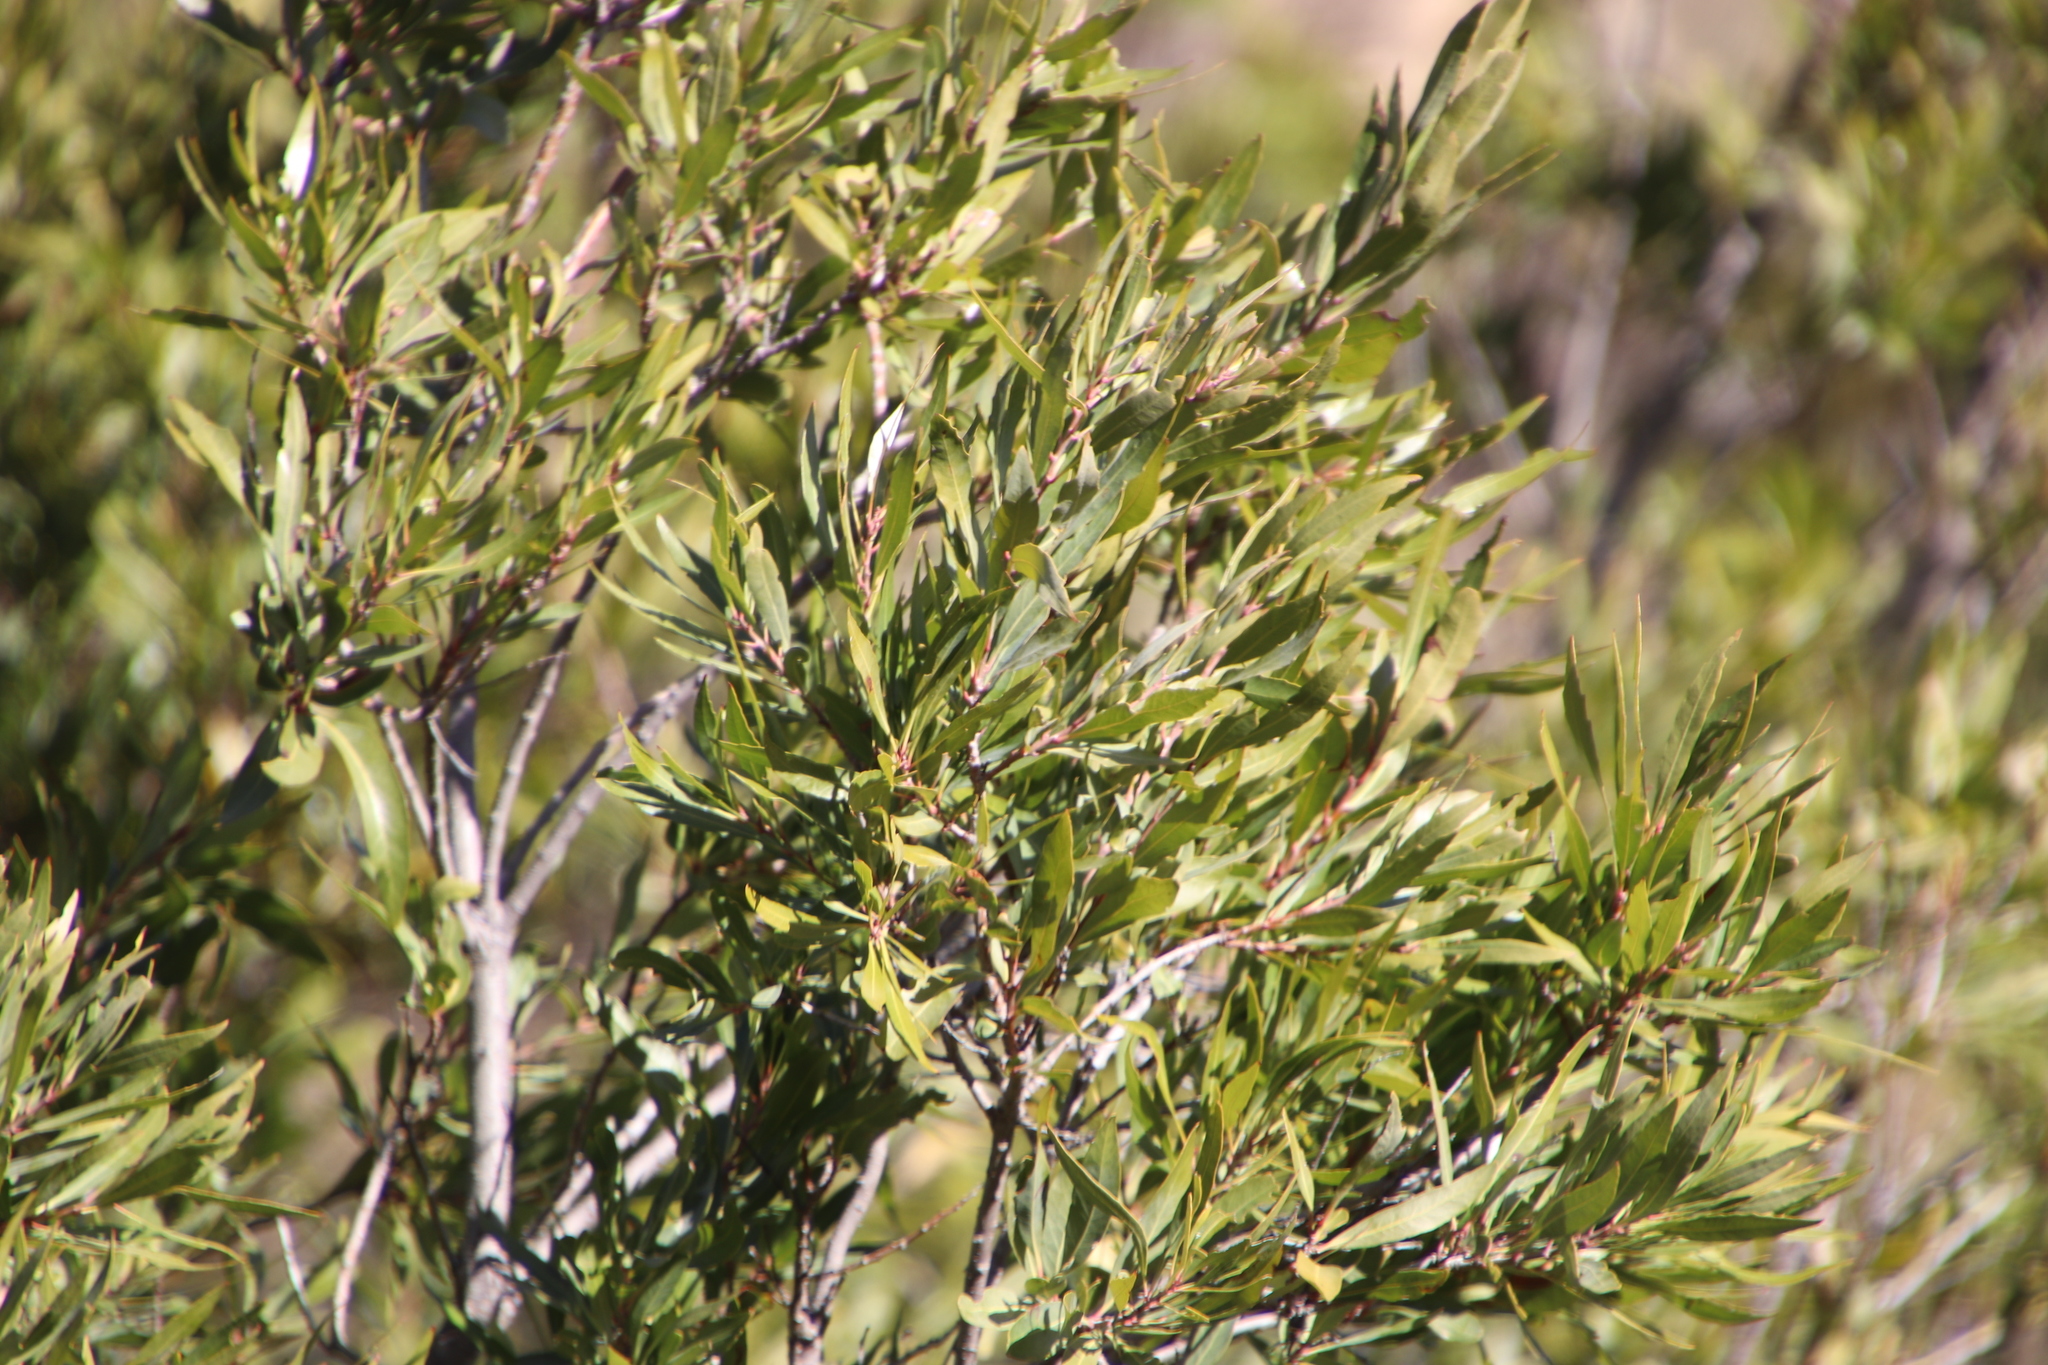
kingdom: Plantae
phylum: Tracheophyta
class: Magnoliopsida
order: Asterales
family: Asteraceae
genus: Brachylaena
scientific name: Brachylaena neriifolia
